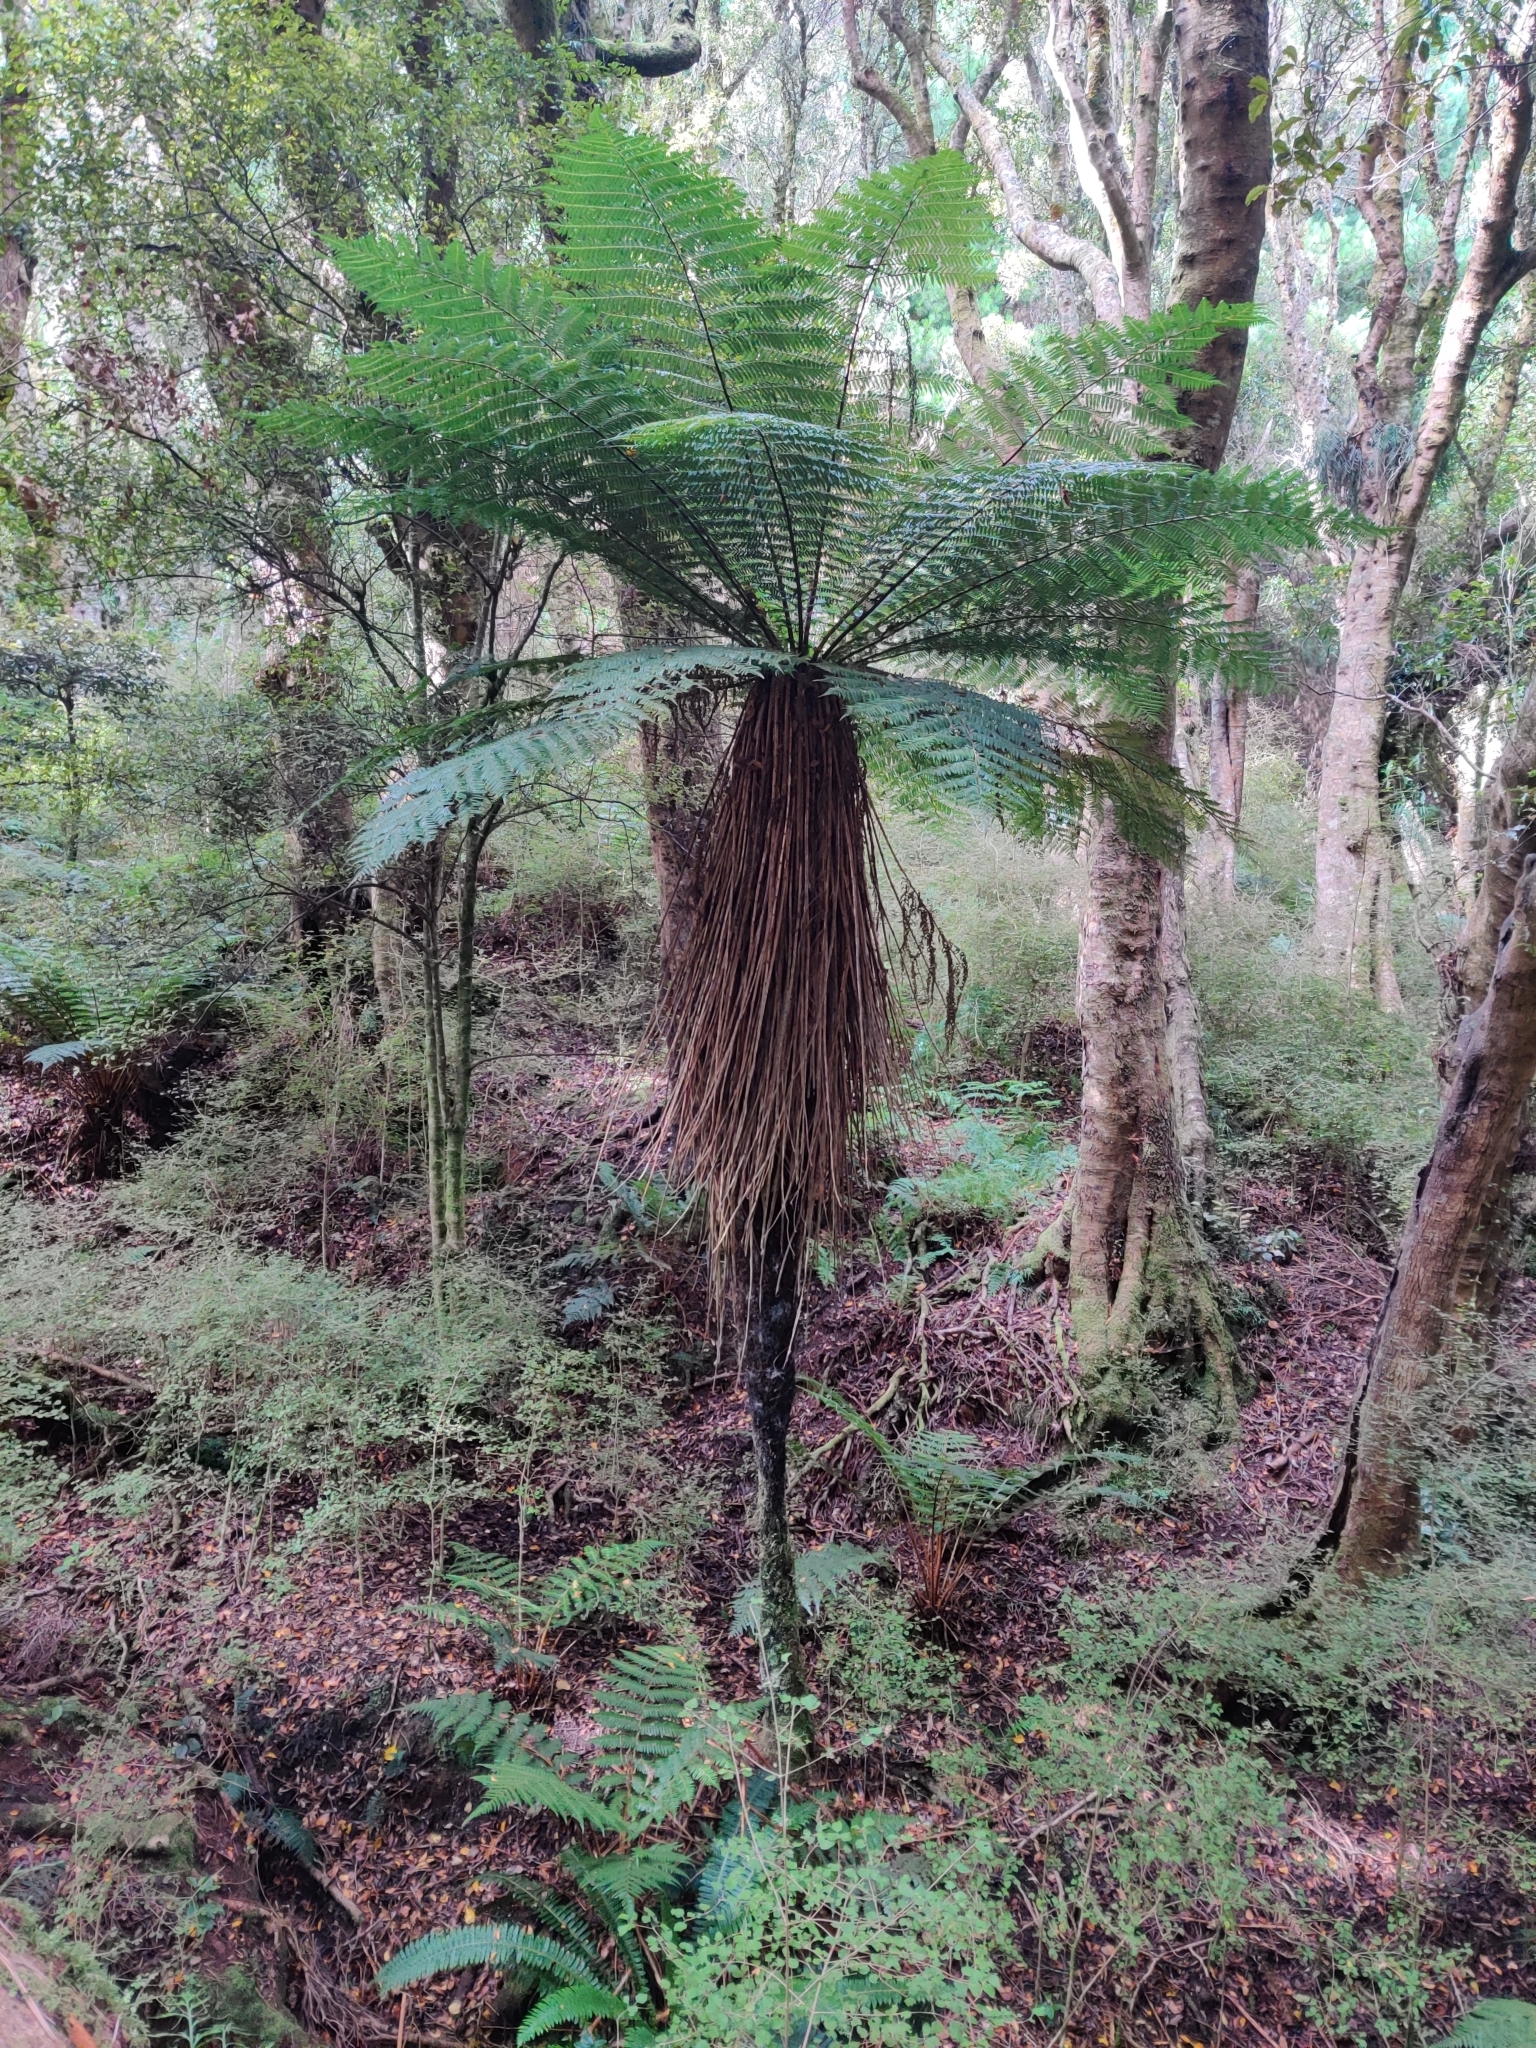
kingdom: Plantae
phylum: Tracheophyta
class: Polypodiopsida
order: Cyatheales
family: Cyatheaceae
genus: Alsophila
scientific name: Alsophila smithii
